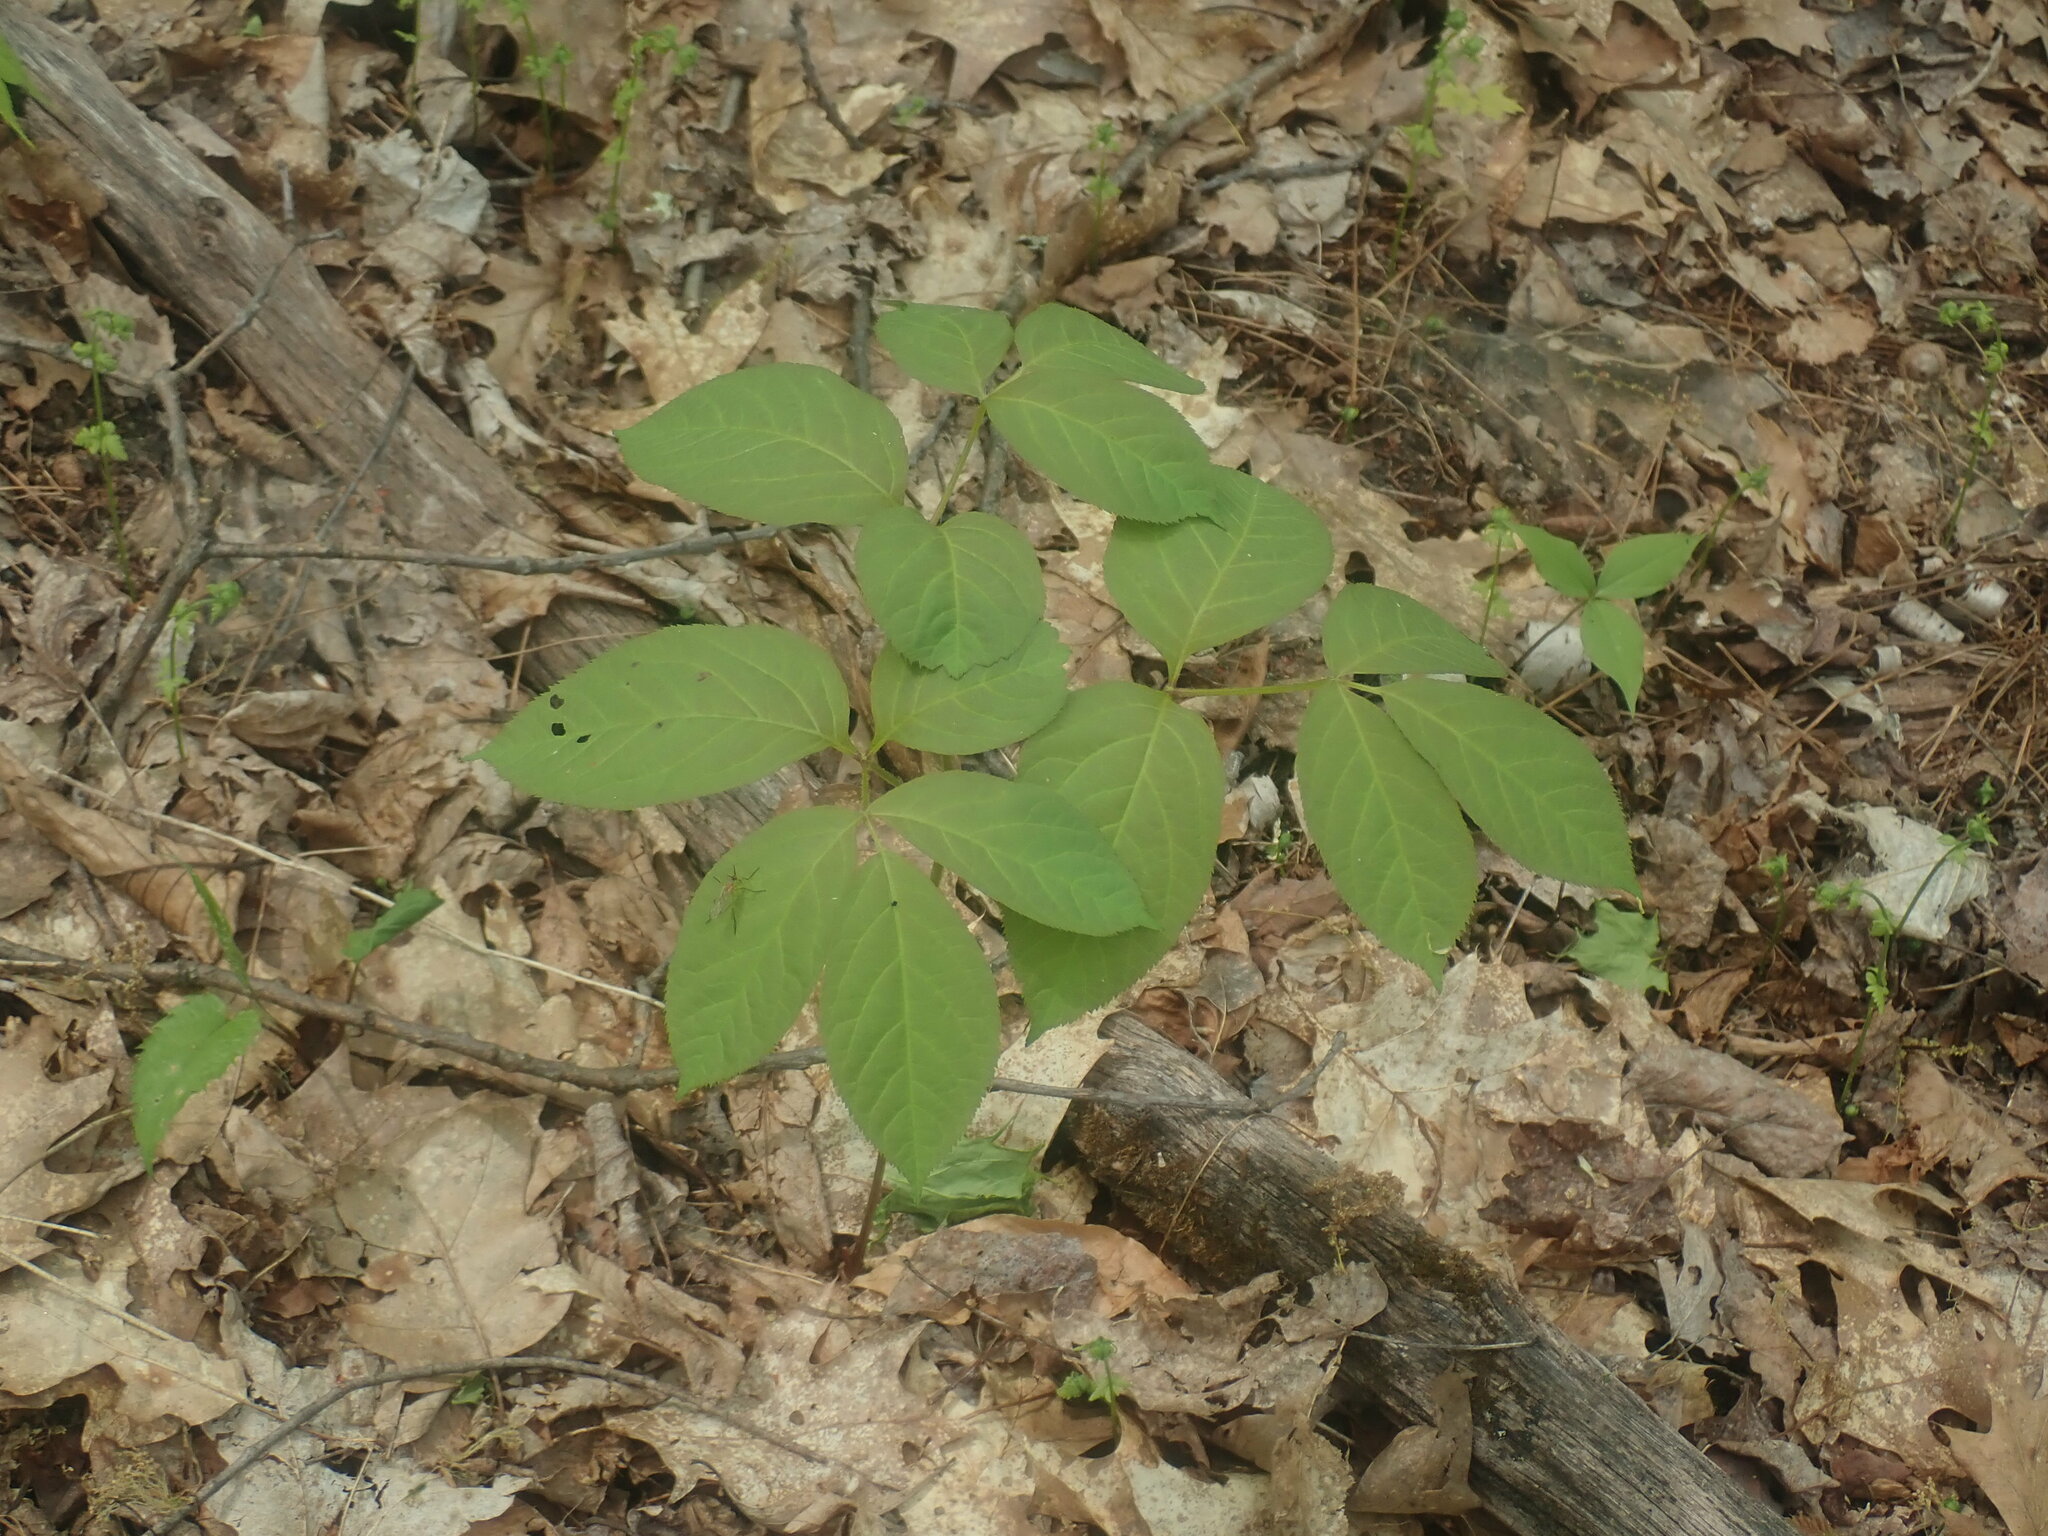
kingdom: Plantae
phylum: Tracheophyta
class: Magnoliopsida
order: Apiales
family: Araliaceae
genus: Aralia
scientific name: Aralia nudicaulis
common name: Wild sarsaparilla
